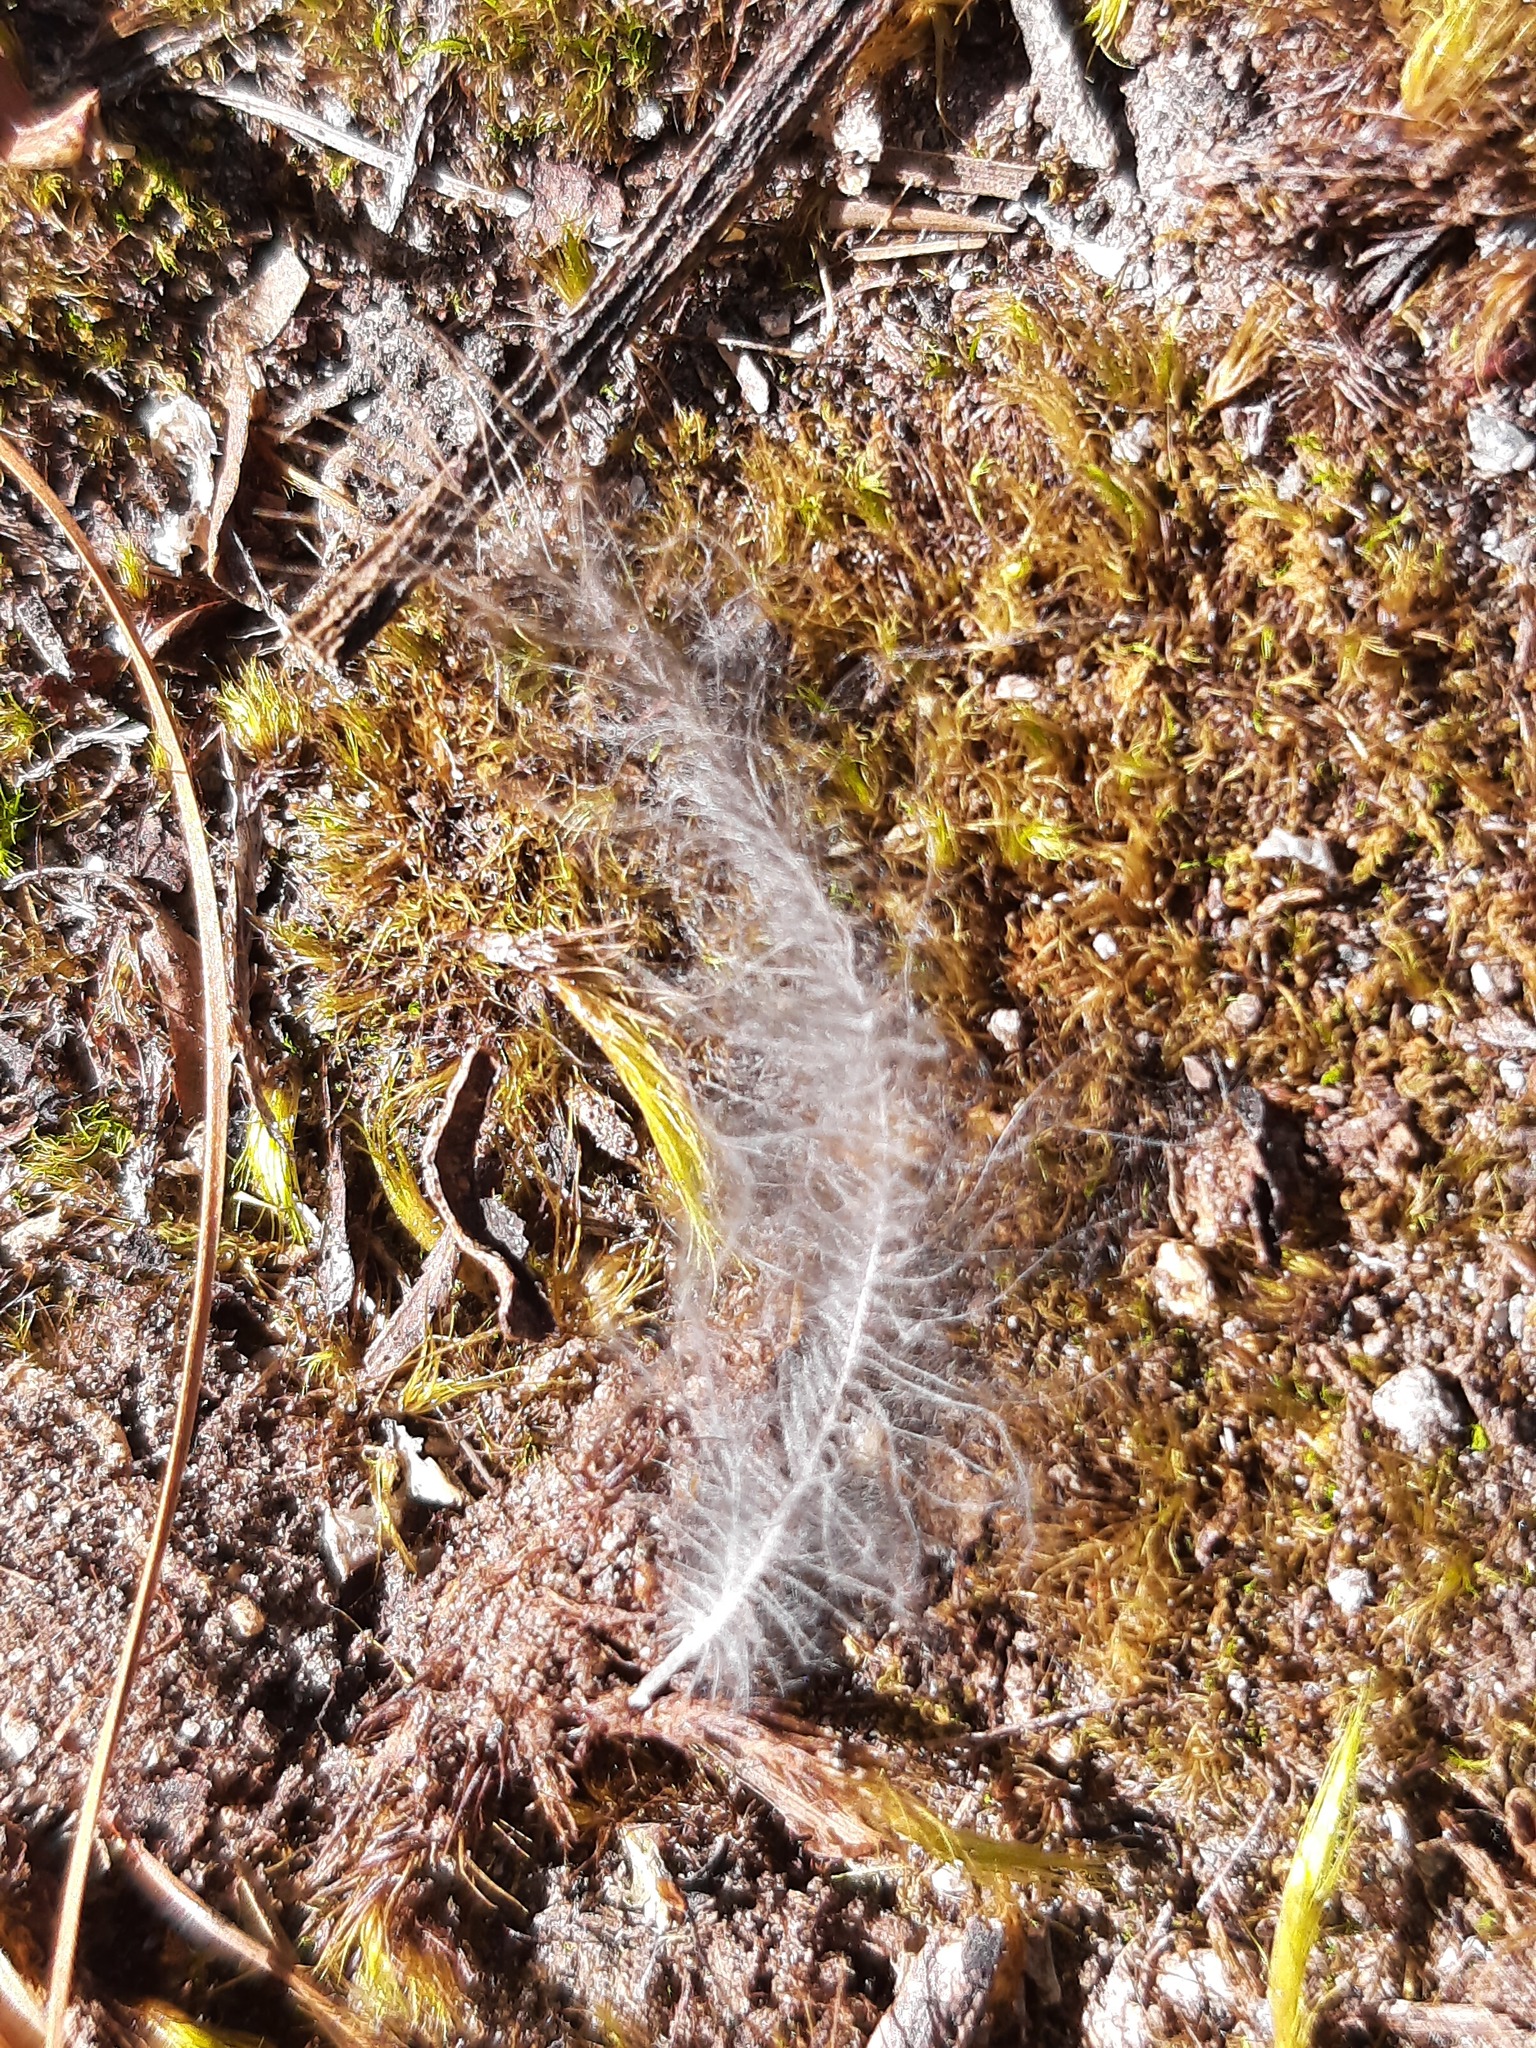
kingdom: Animalia
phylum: Chordata
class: Aves
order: Apterygiformes
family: Apterygidae
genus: Apteryx
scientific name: Apteryx mantelli
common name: North island brown kiwi
